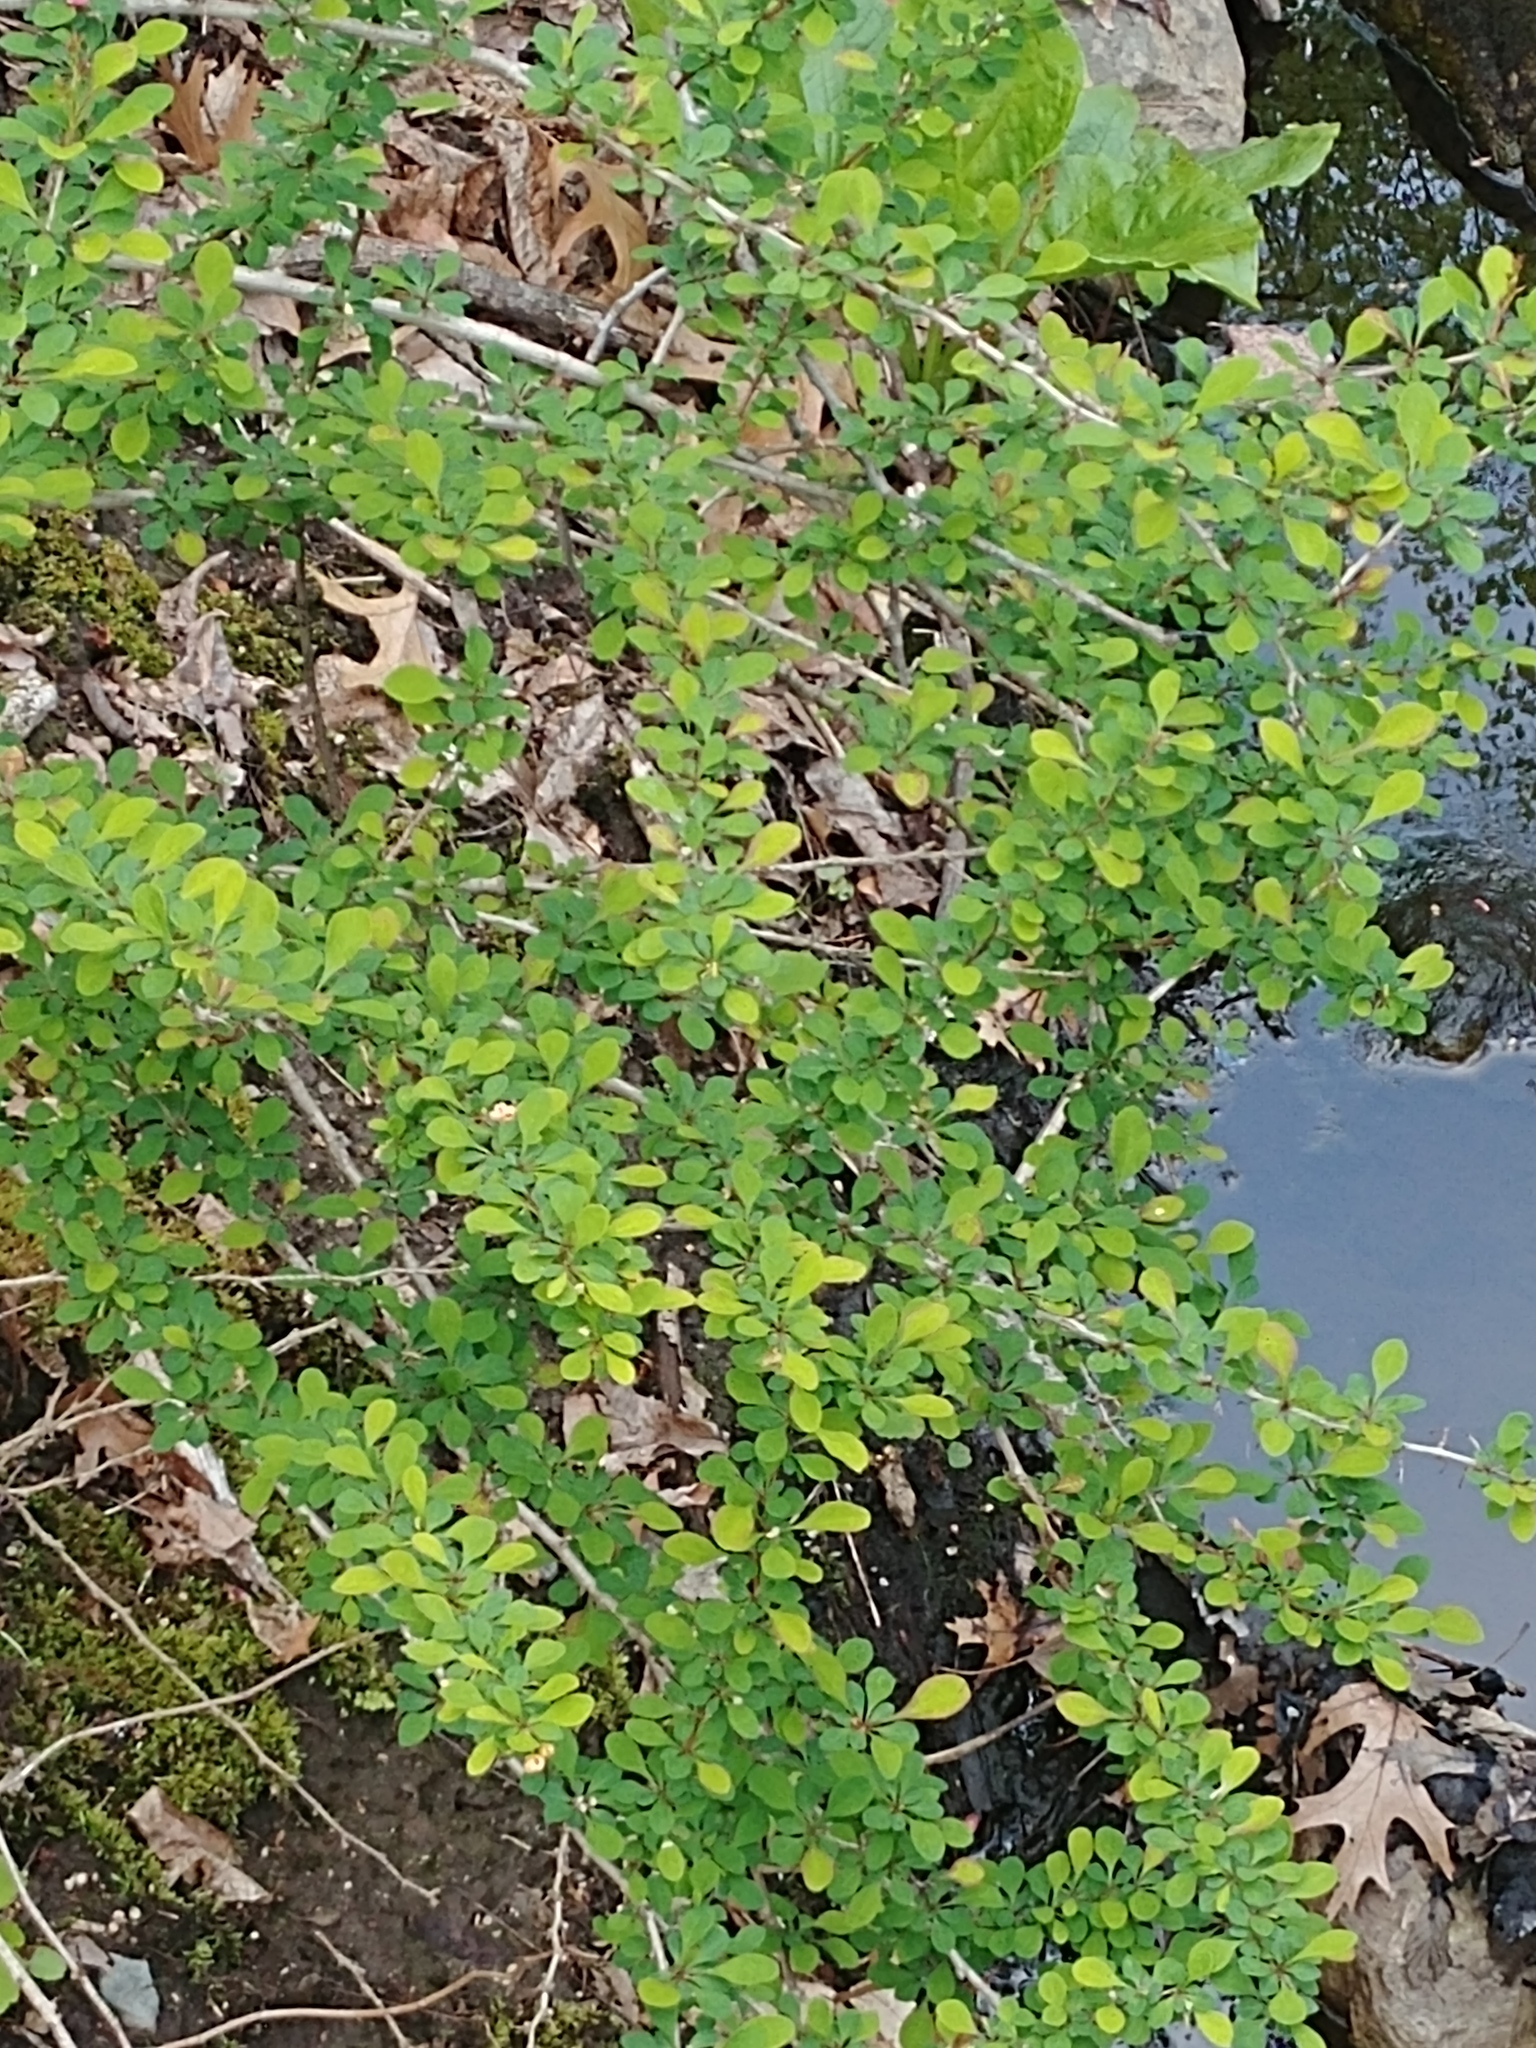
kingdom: Plantae
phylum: Tracheophyta
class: Magnoliopsida
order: Ranunculales
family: Berberidaceae
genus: Berberis
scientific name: Berberis thunbergii
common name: Japanese barberry
